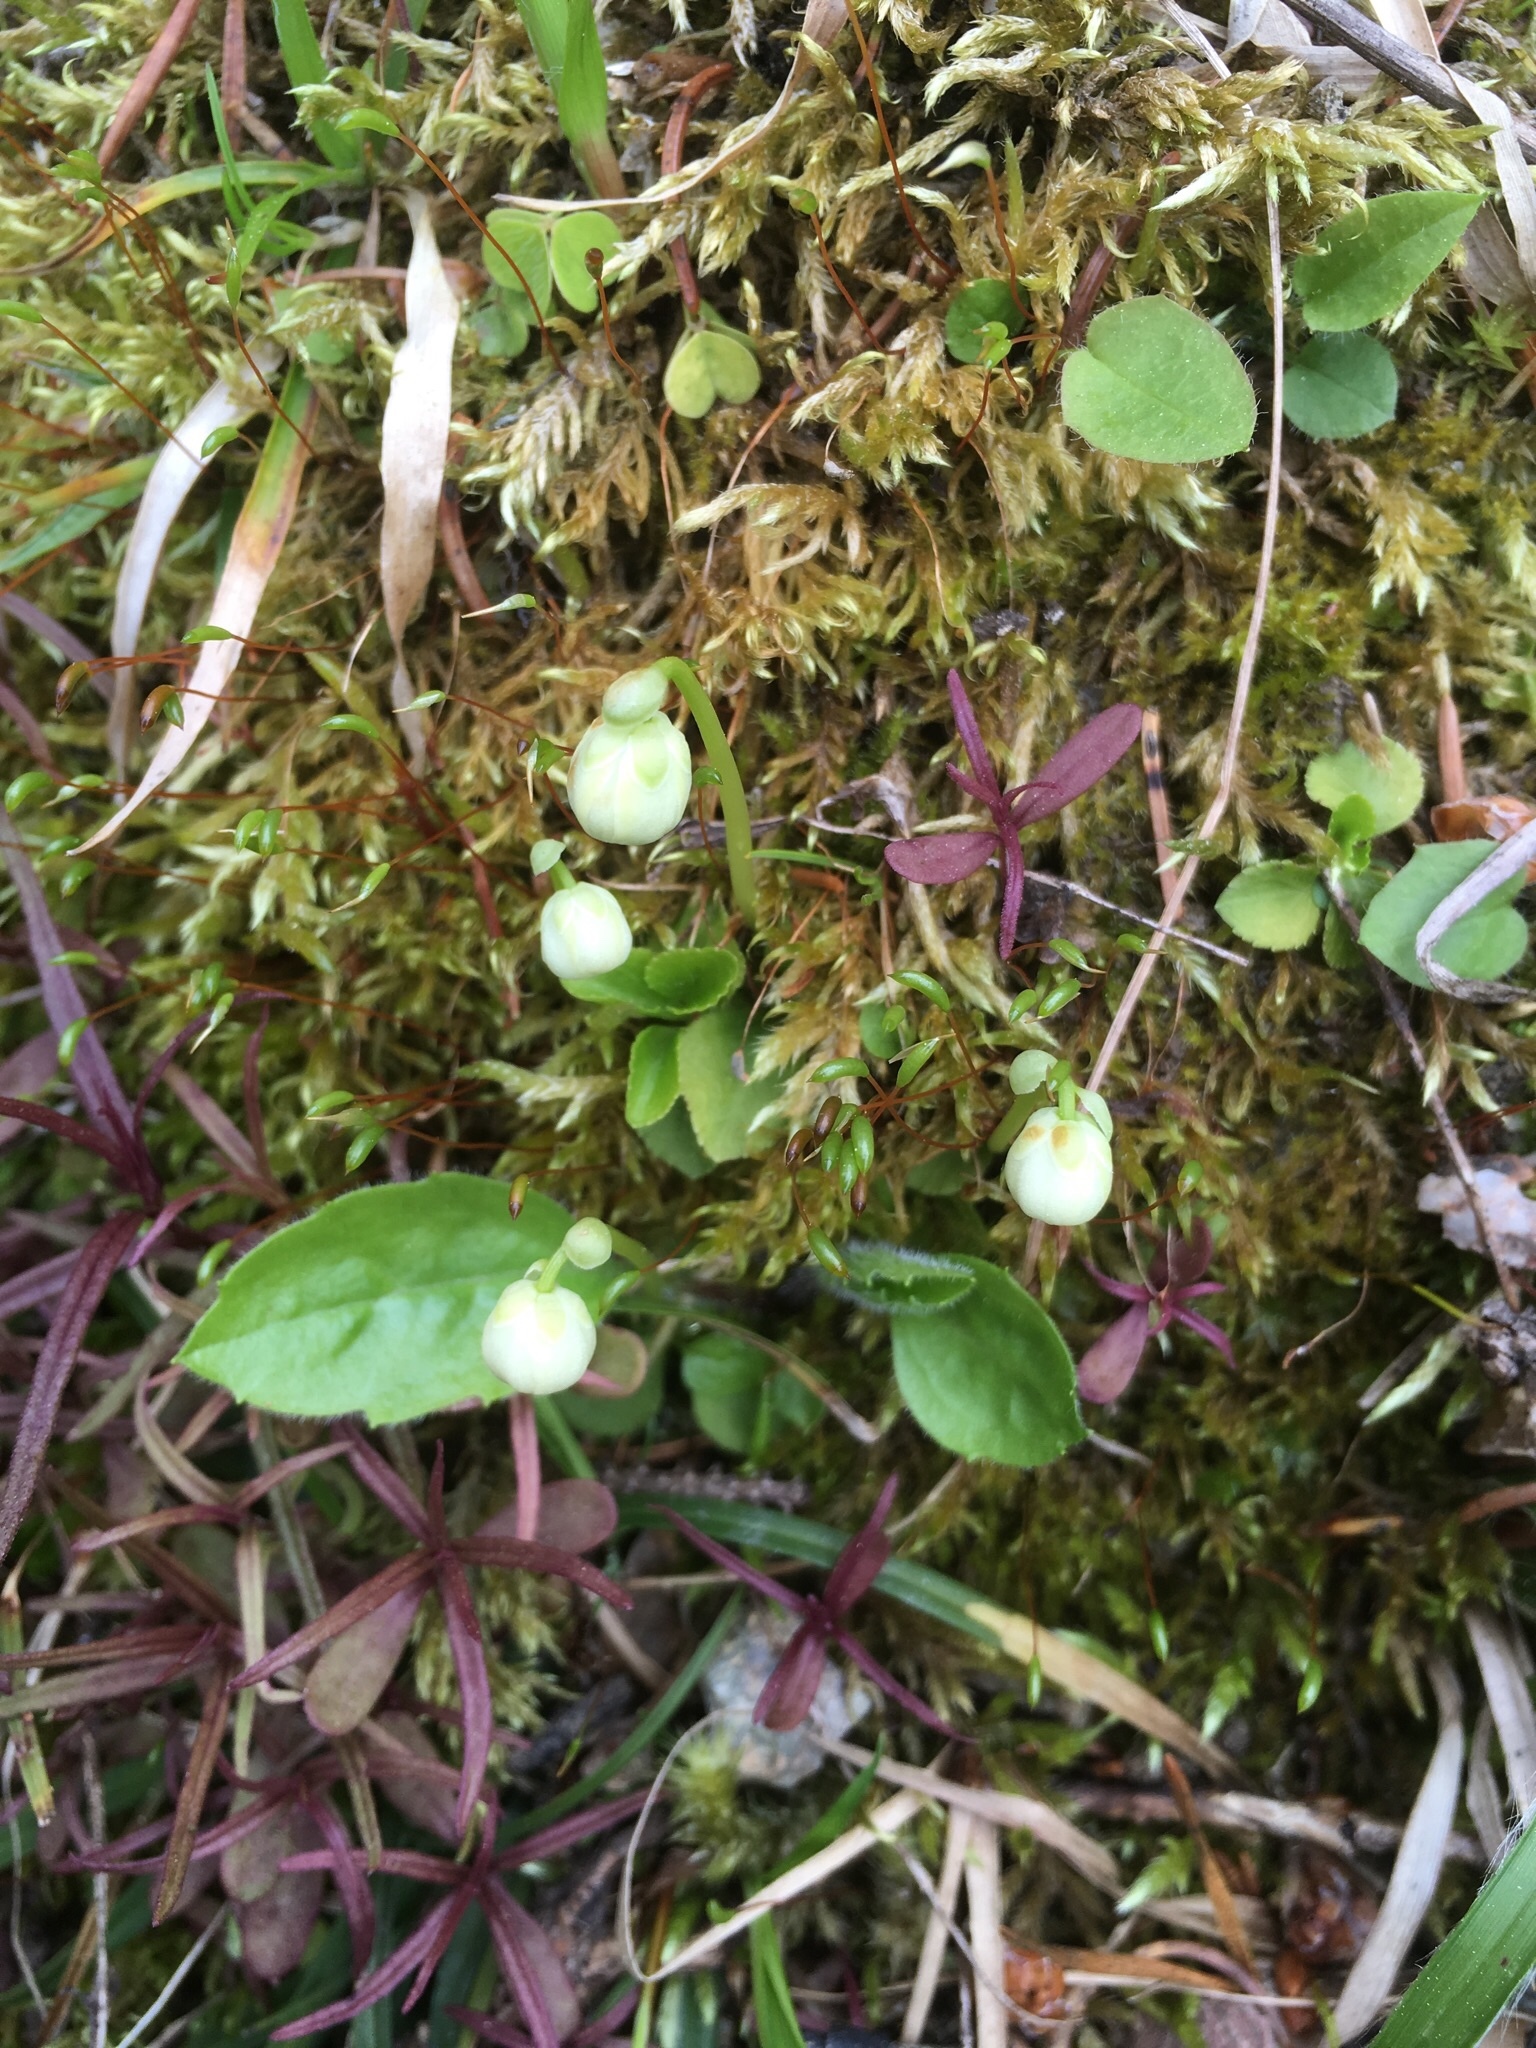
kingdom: Plantae
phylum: Tracheophyta
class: Magnoliopsida
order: Ericales
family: Ericaceae
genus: Moneses
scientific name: Moneses uniflora
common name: One-flowered wintergreen
